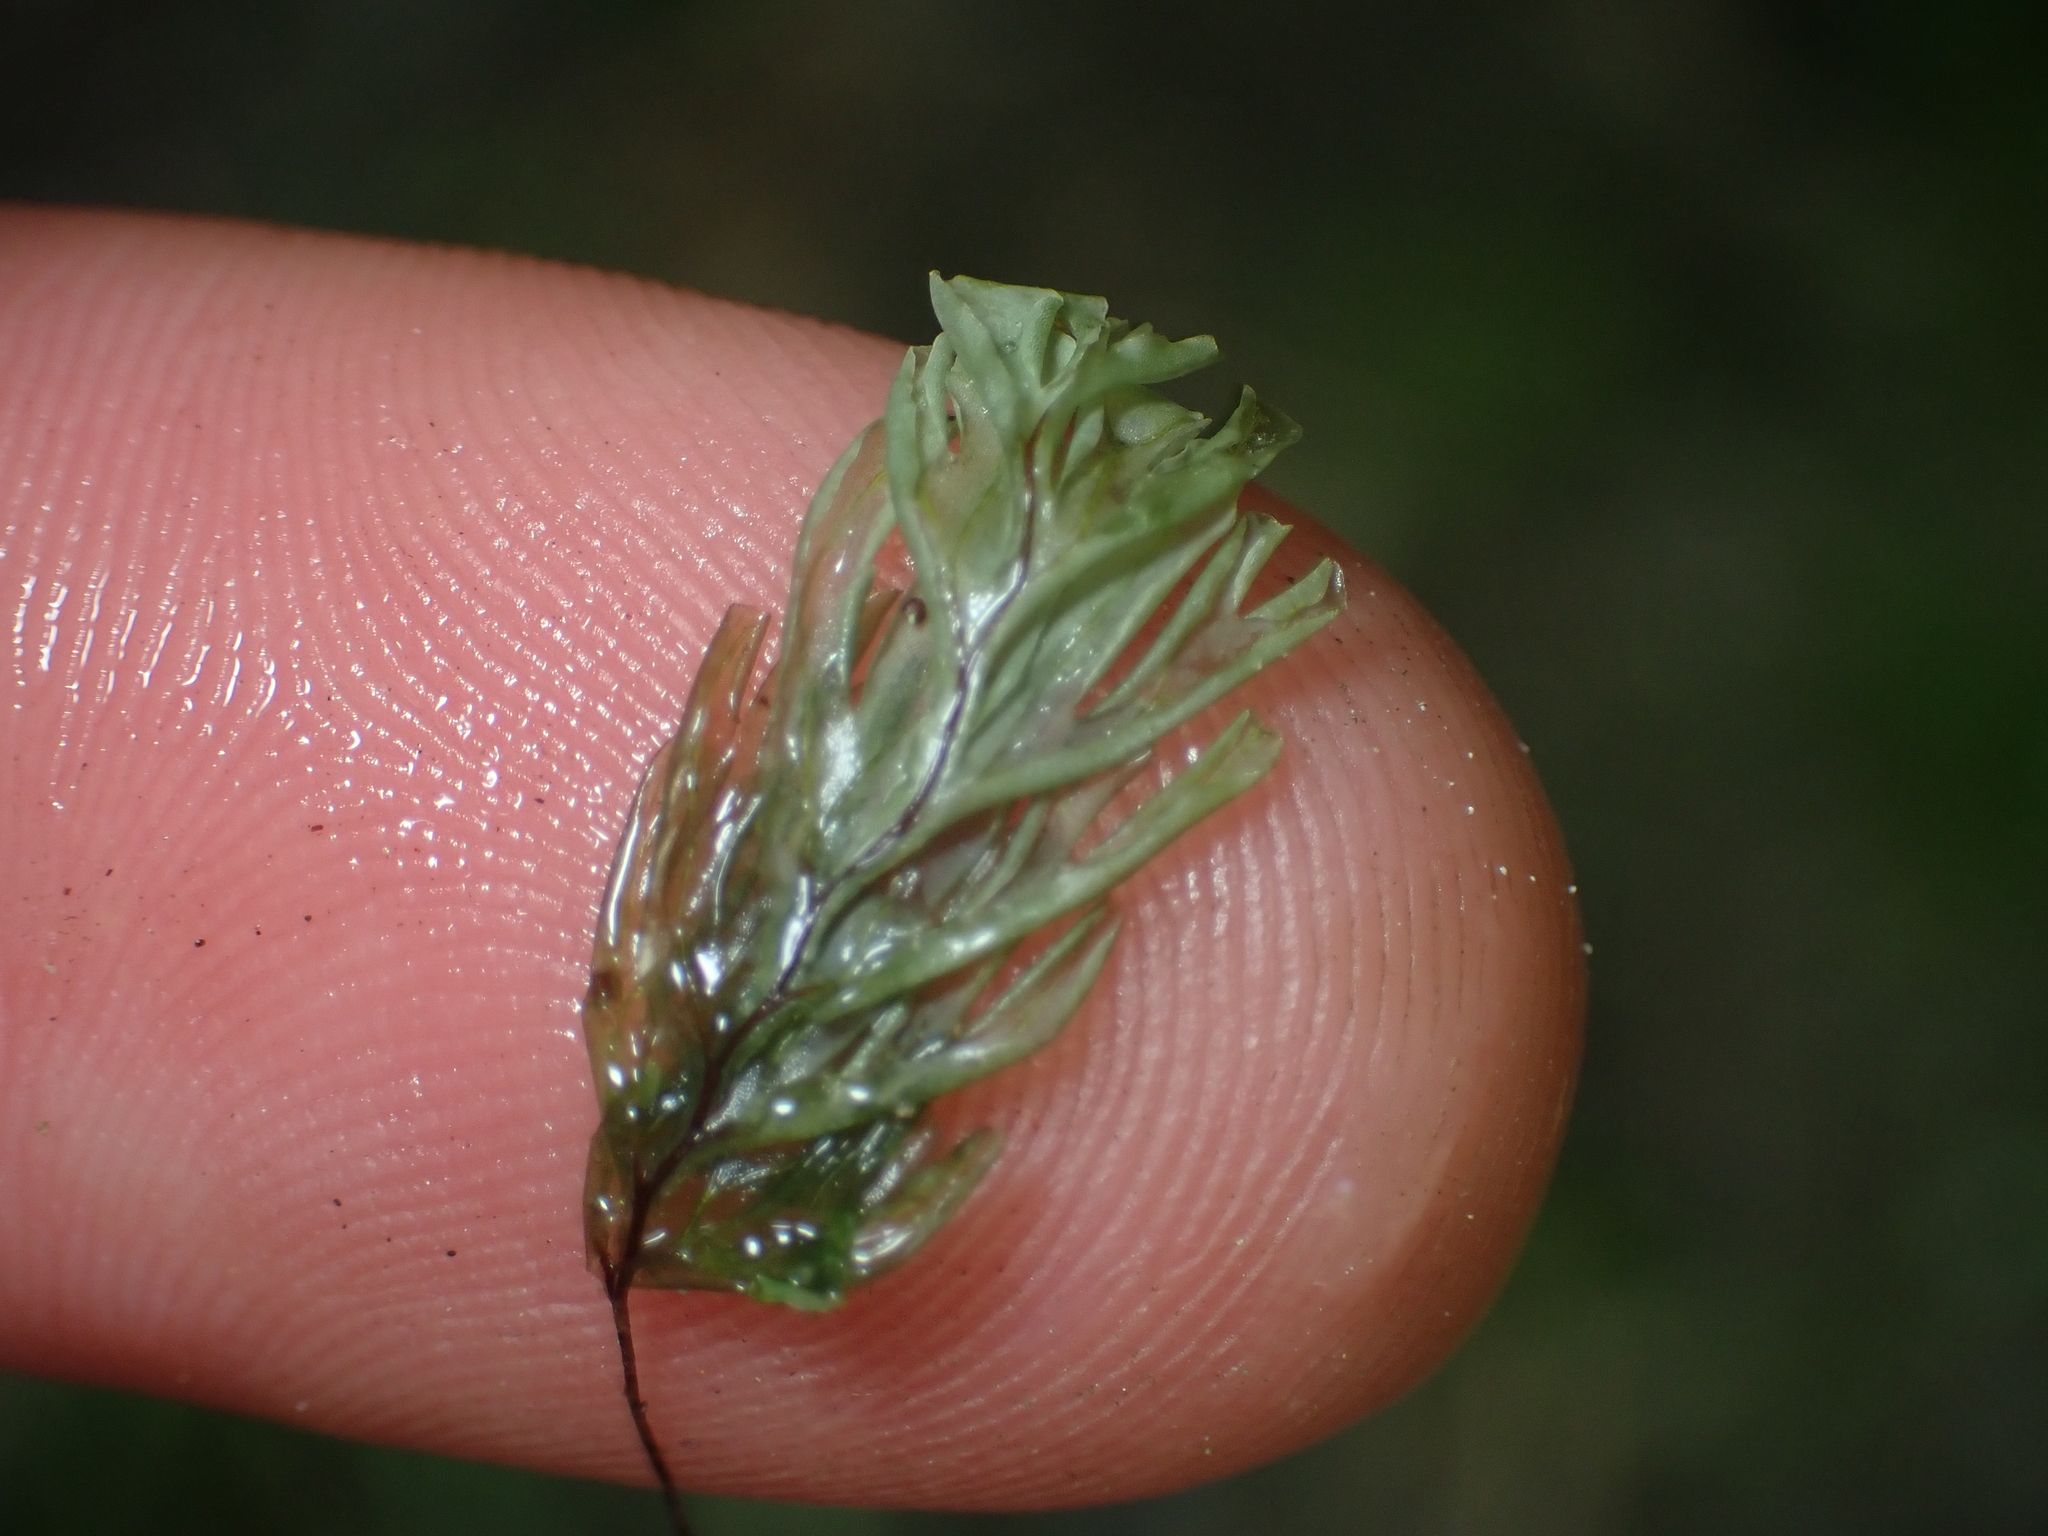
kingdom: Plantae
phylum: Tracheophyta
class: Polypodiopsida
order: Hymenophyllales
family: Hymenophyllaceae
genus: Hymenophyllum
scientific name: Hymenophyllum rarum
